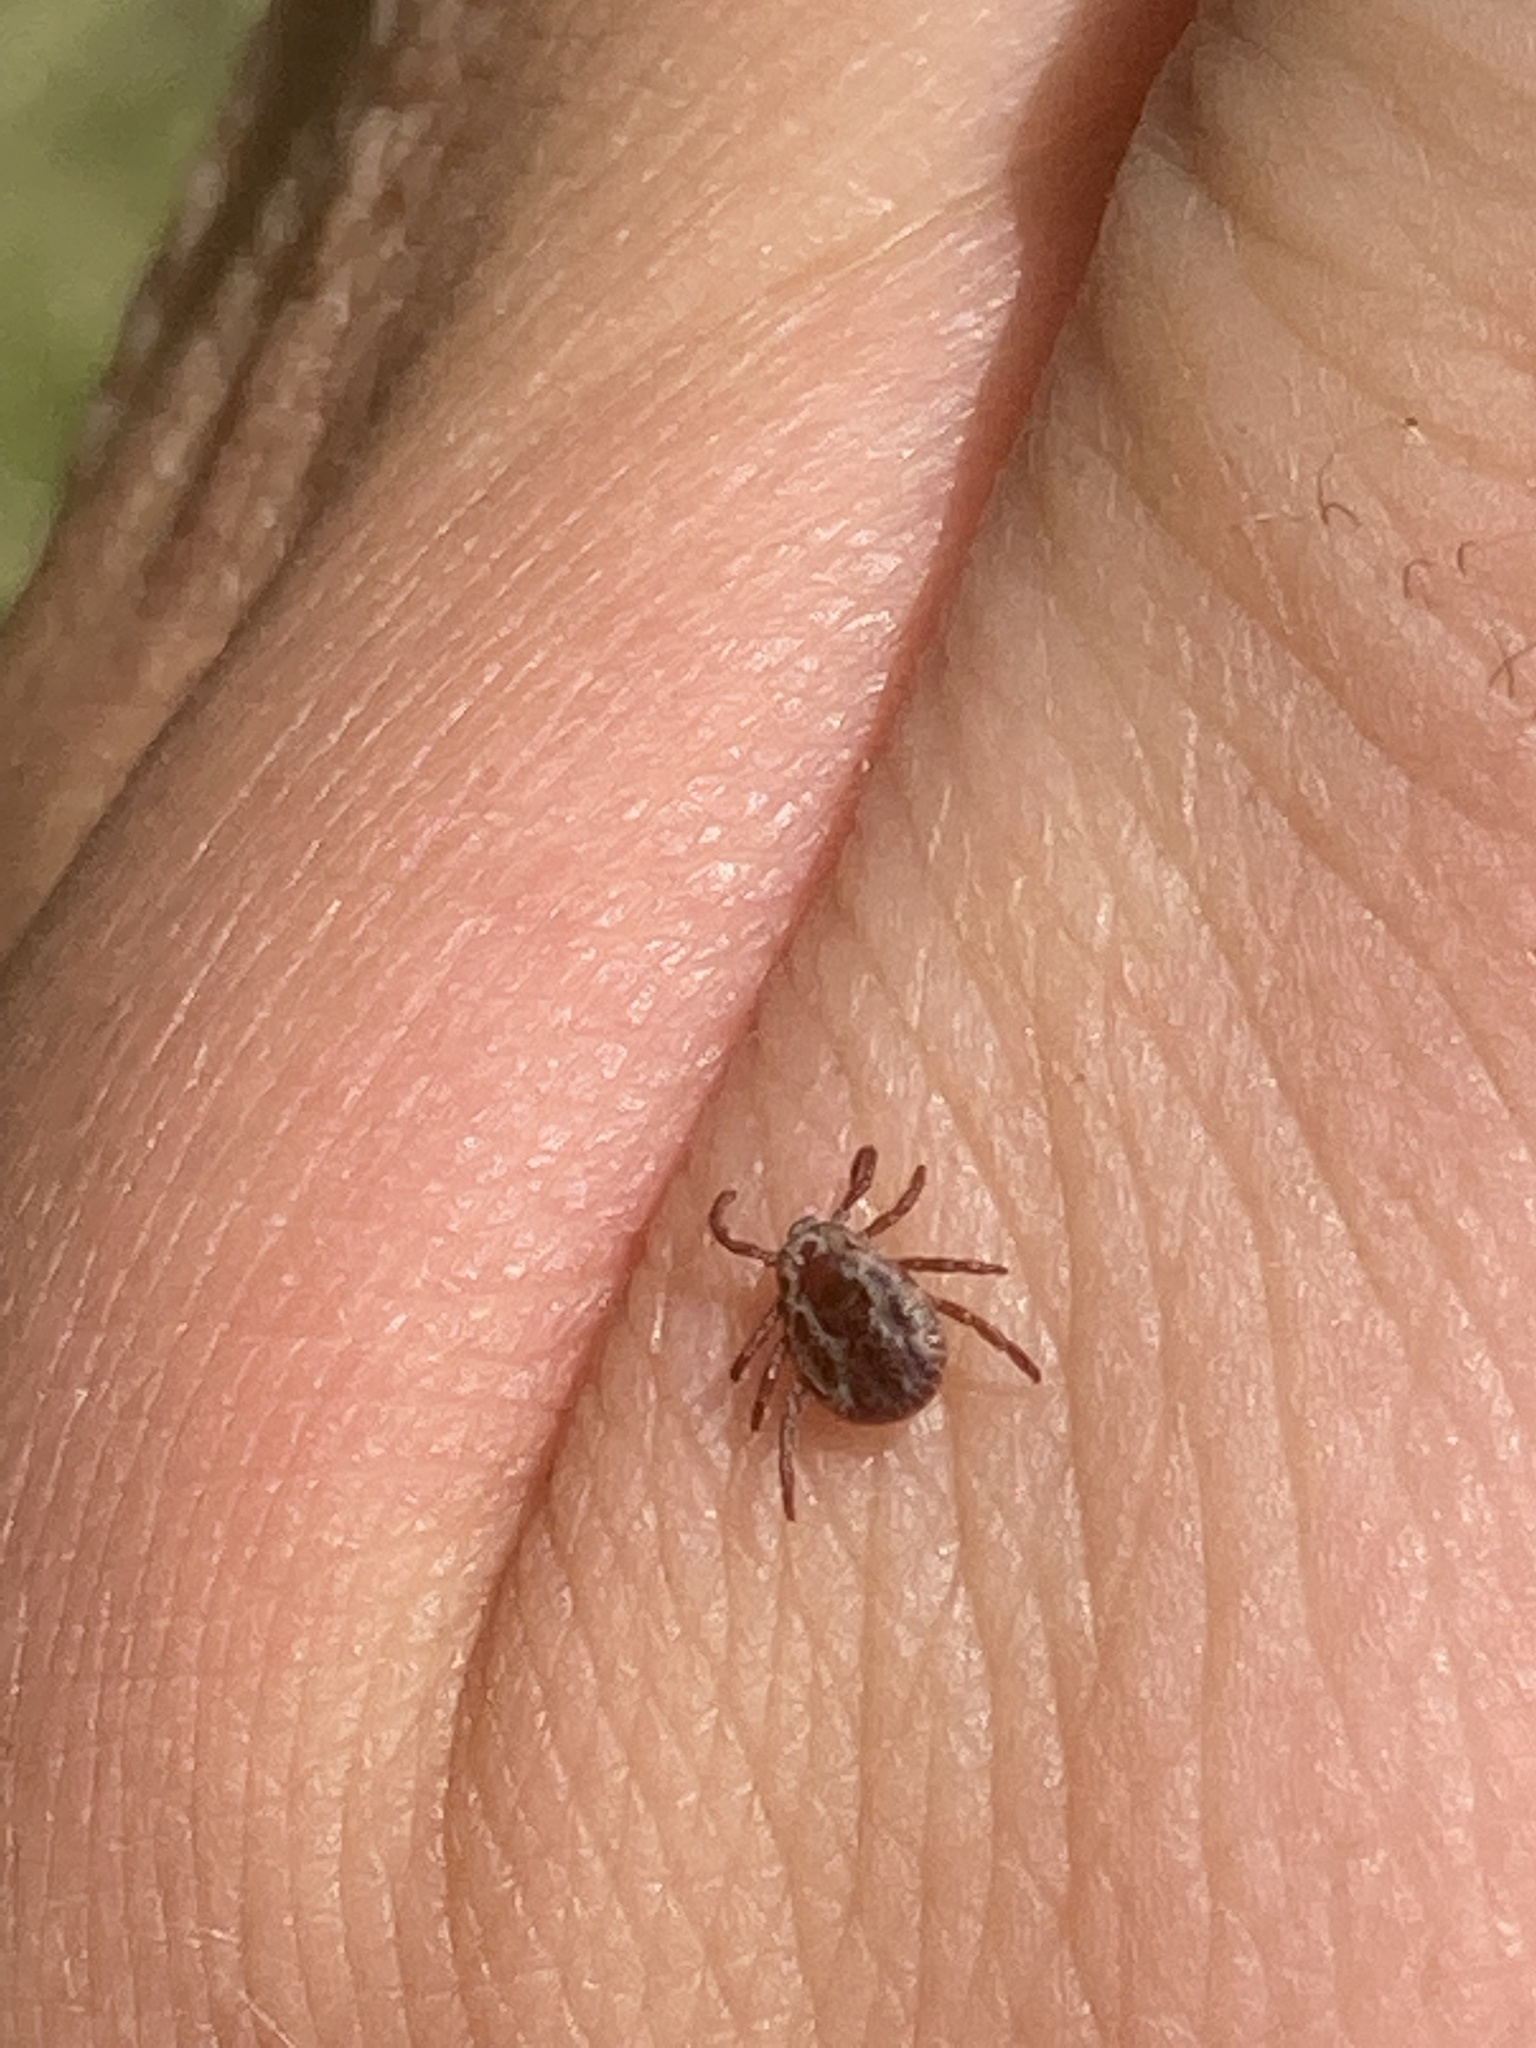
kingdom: Animalia
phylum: Arthropoda
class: Arachnida
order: Ixodida
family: Ixodidae
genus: Dermacentor
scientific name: Dermacentor variabilis
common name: American dog tick
